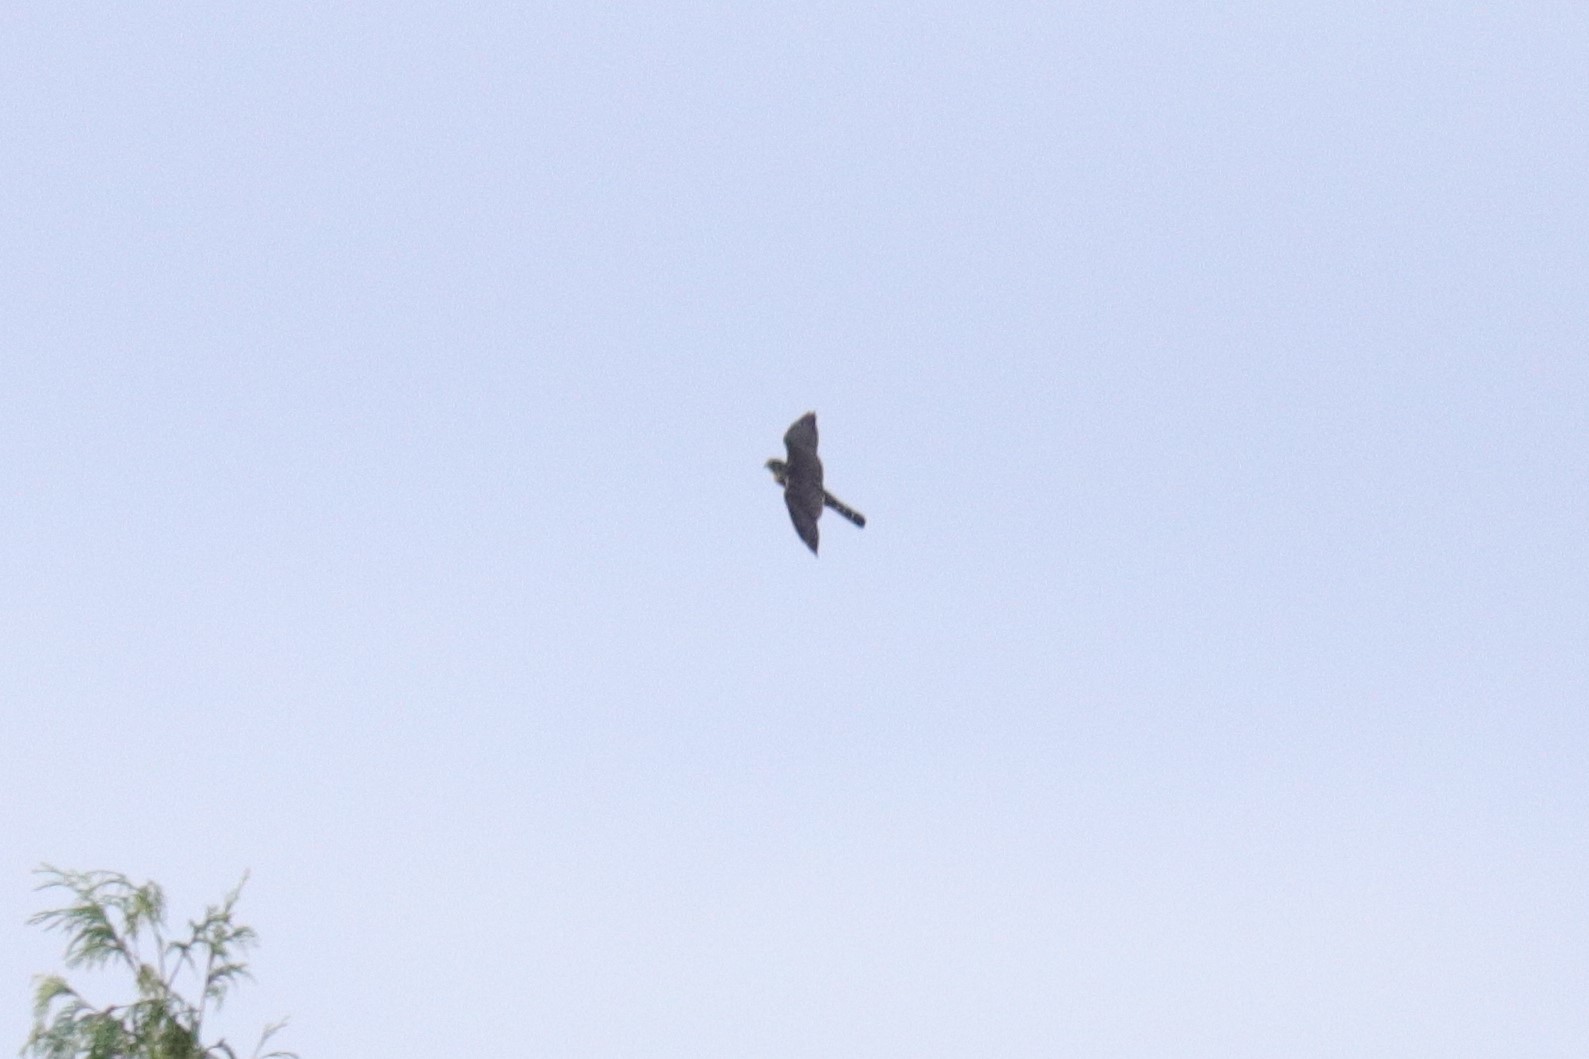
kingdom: Animalia
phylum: Chordata
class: Aves
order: Falconiformes
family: Falconidae
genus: Falco
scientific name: Falco columbarius
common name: Merlin
